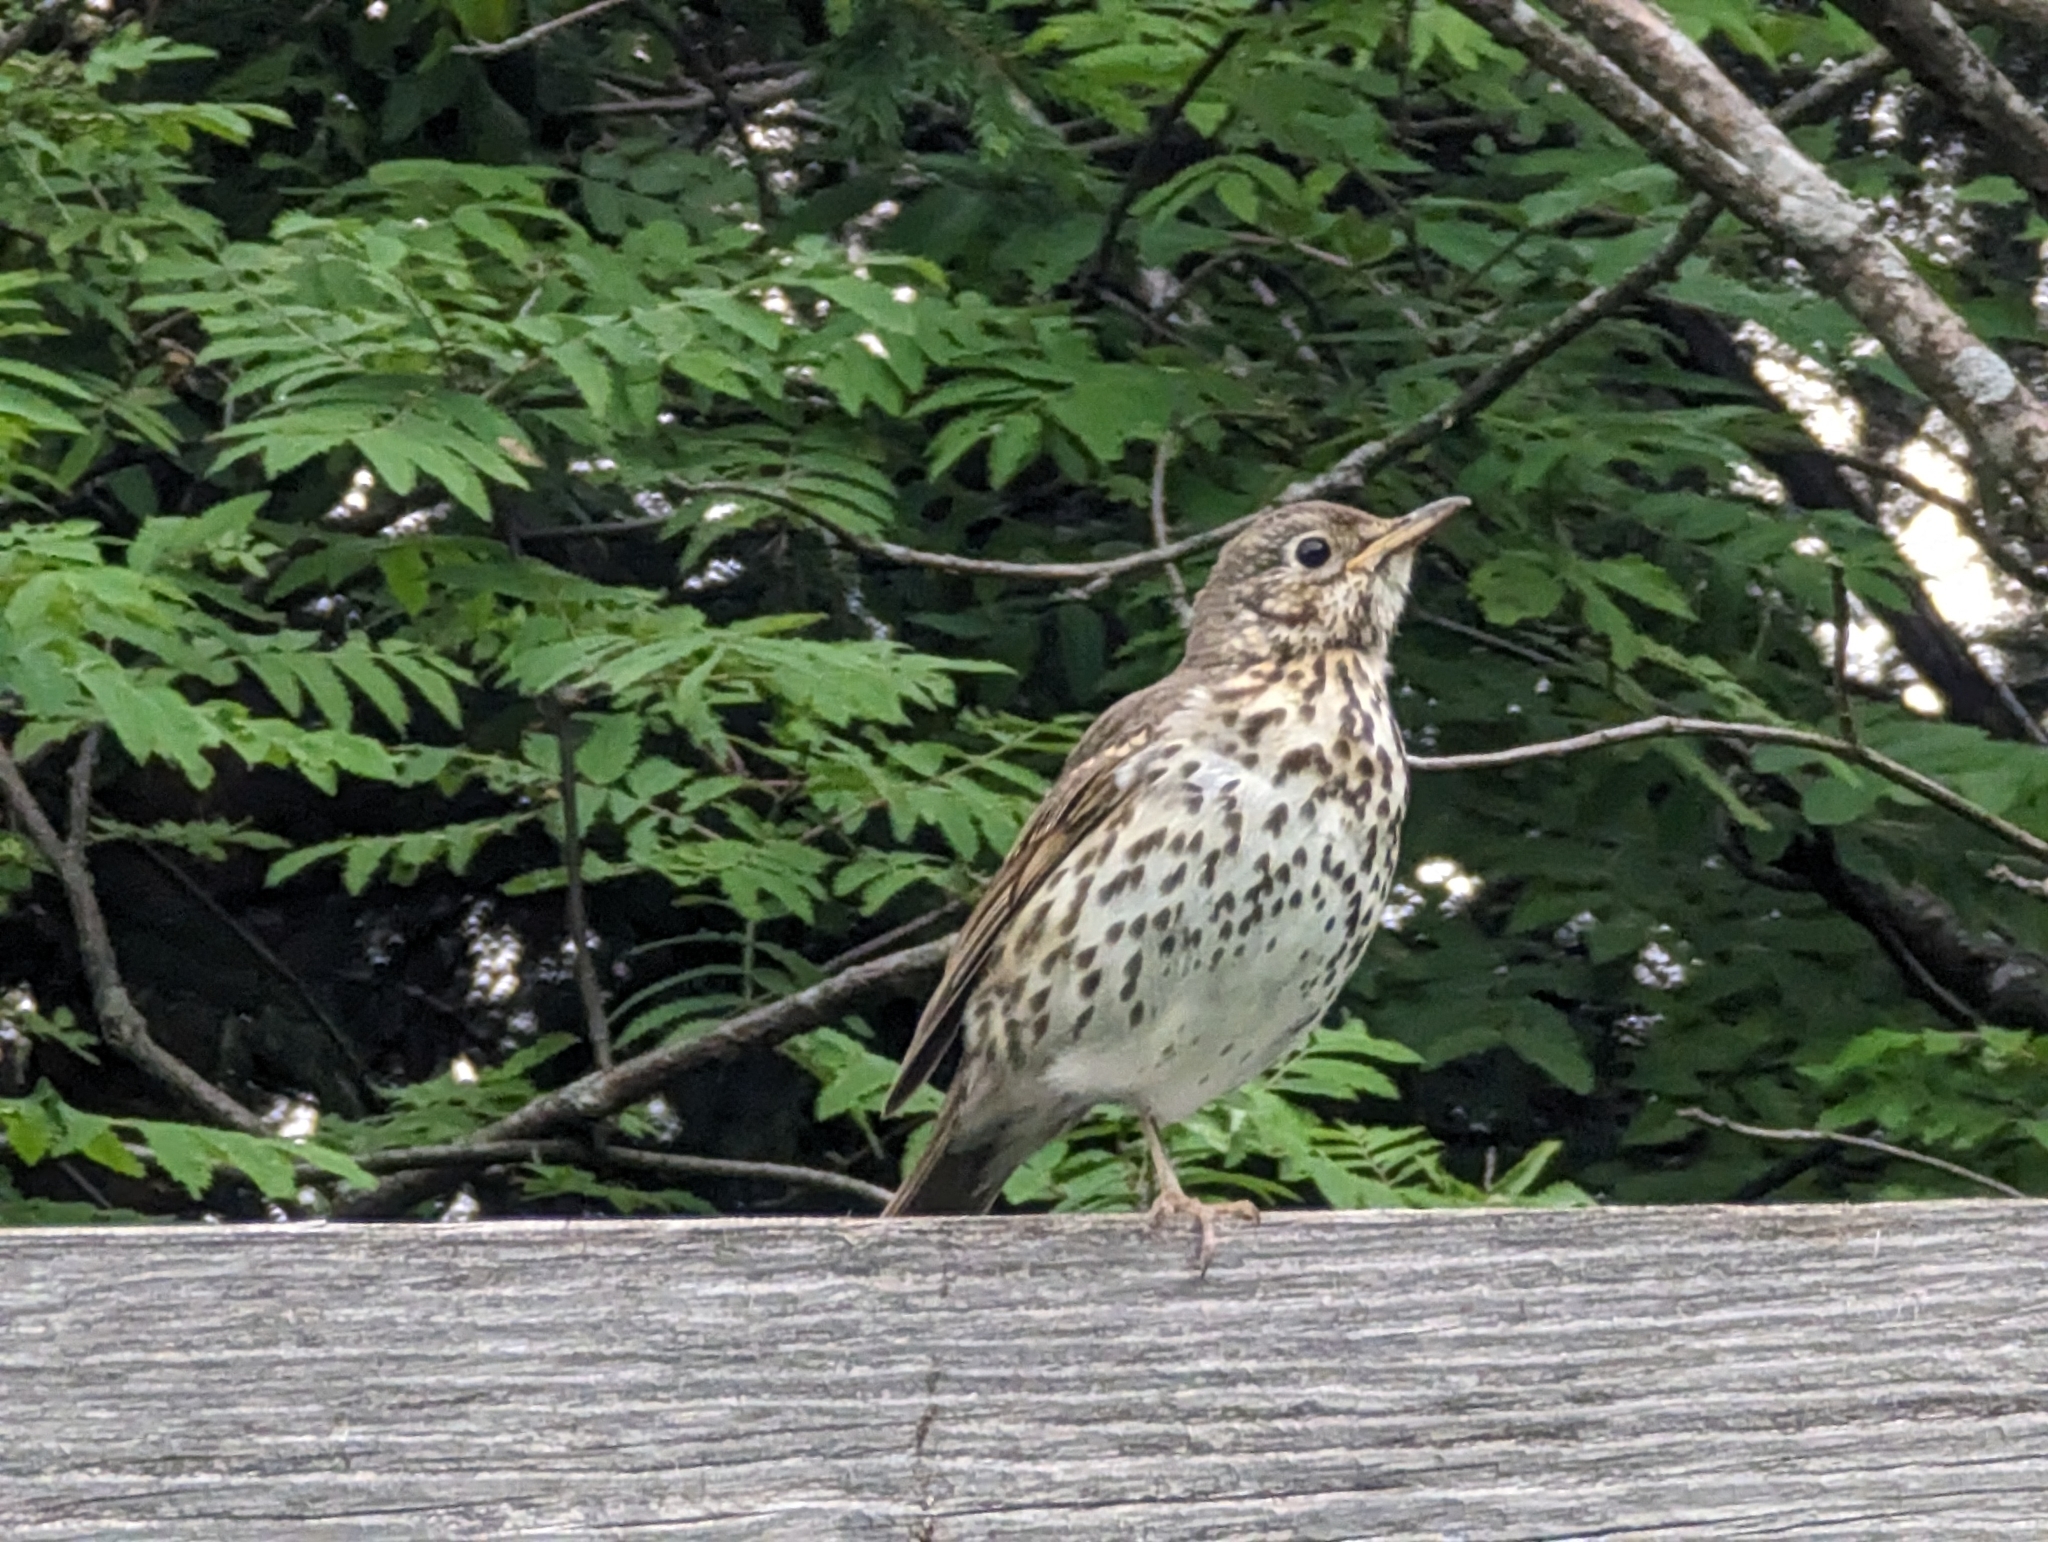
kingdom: Animalia
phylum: Chordata
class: Aves
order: Passeriformes
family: Turdidae
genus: Turdus
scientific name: Turdus philomelos
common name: Song thrush
